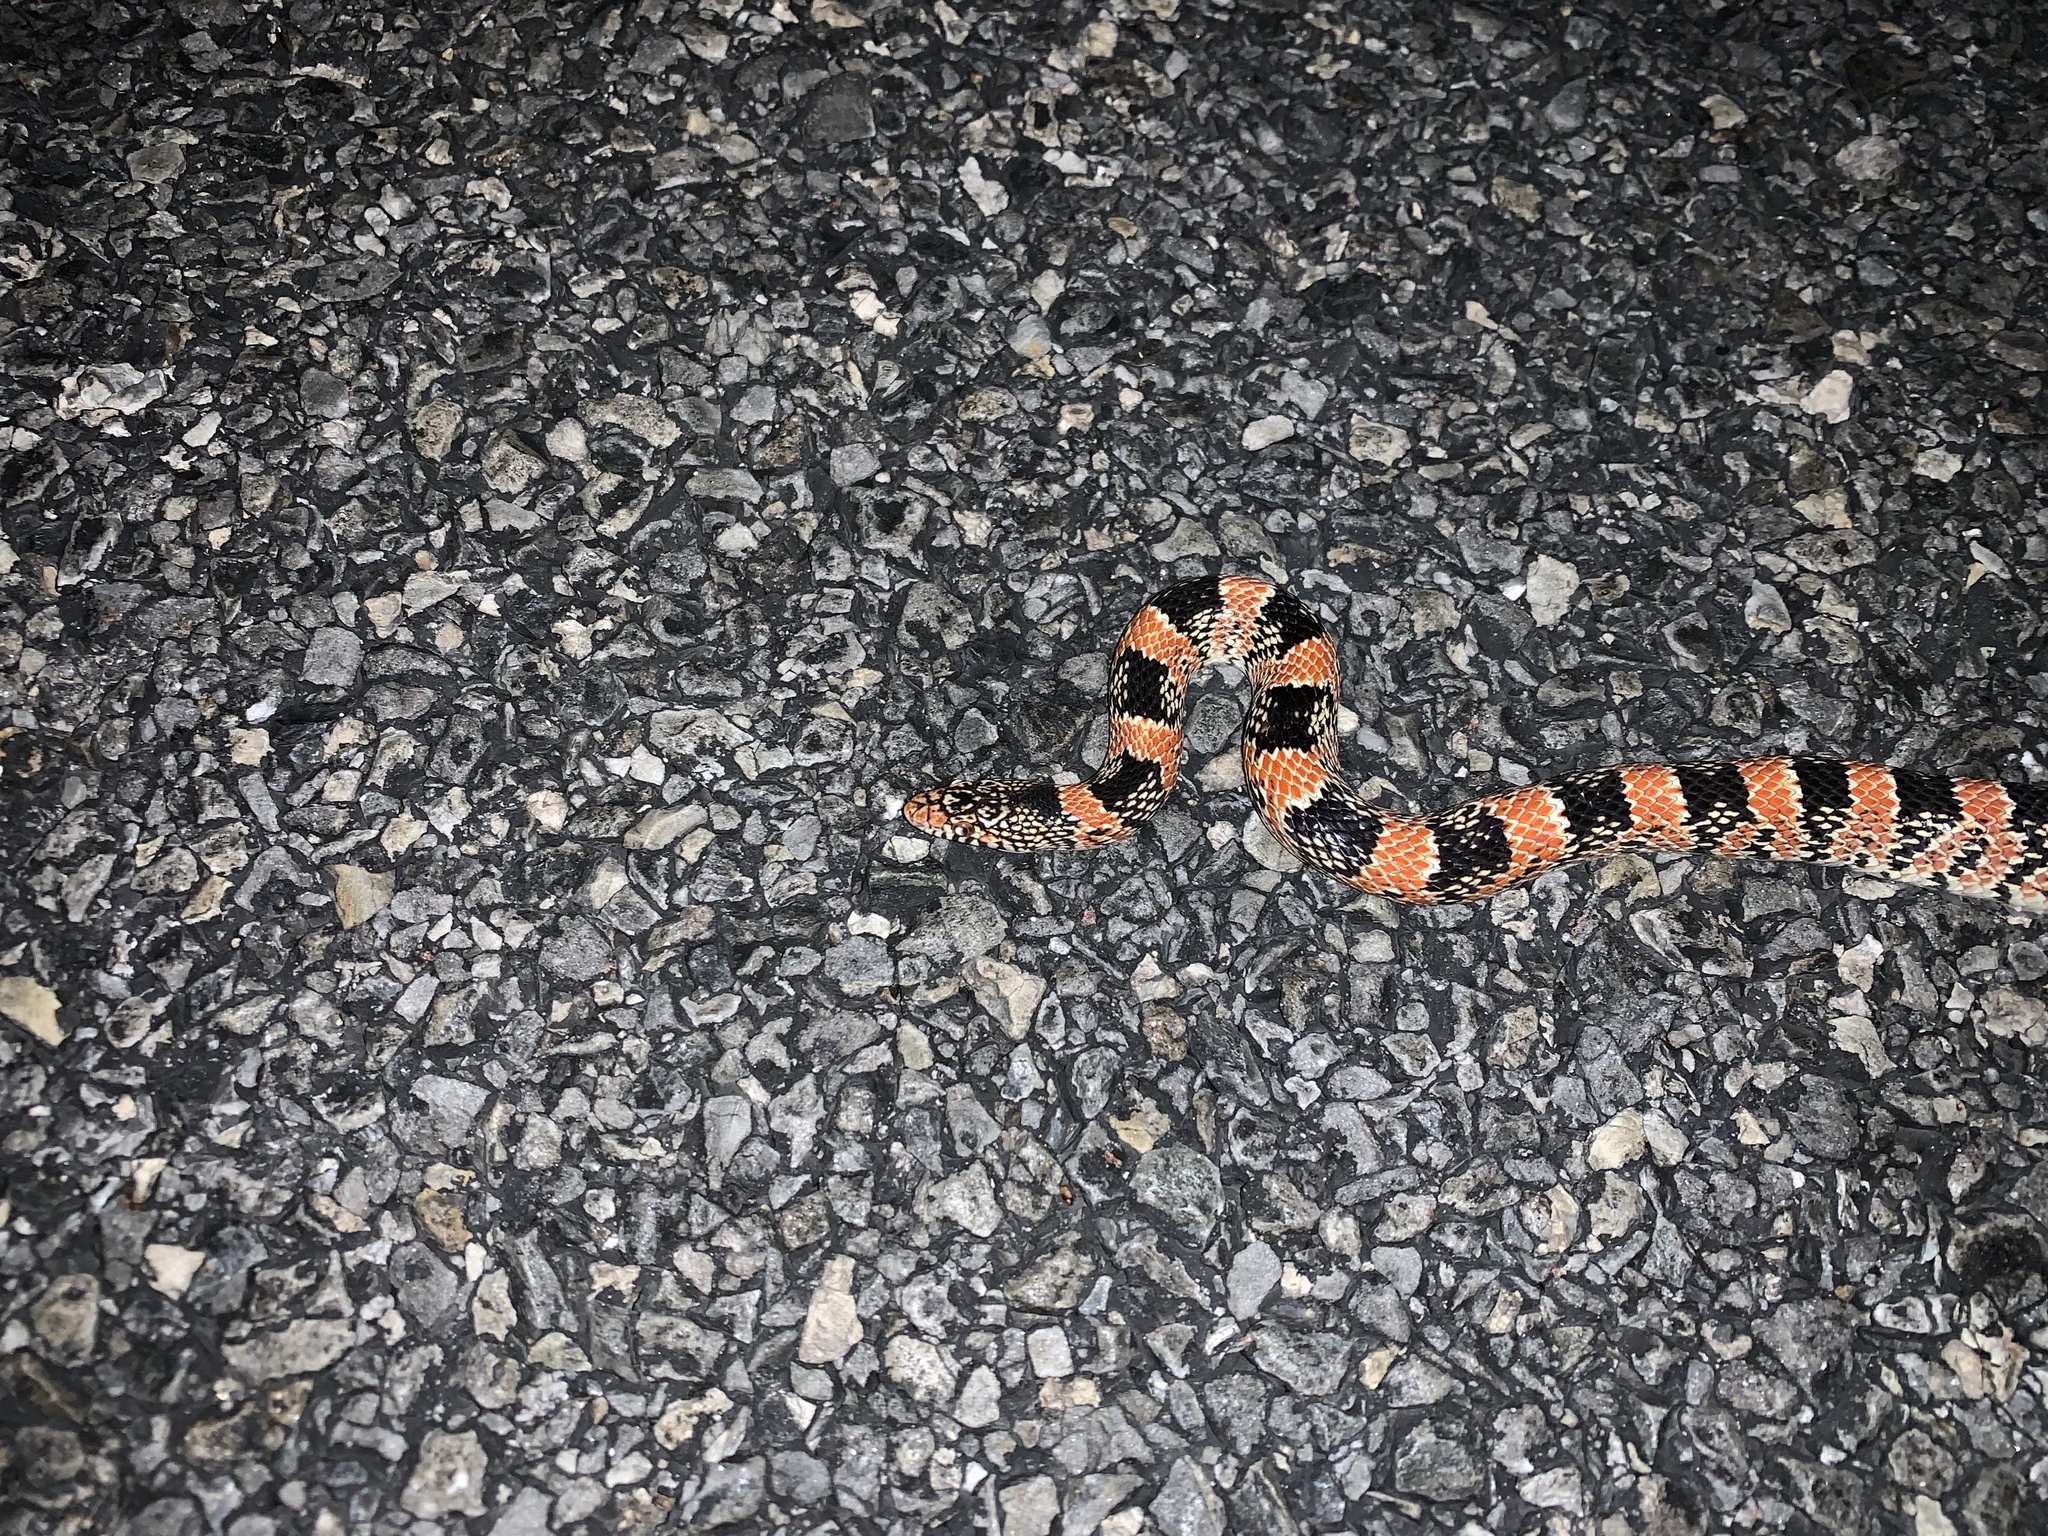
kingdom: Animalia
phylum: Chordata
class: Squamata
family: Colubridae
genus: Rhinocheilus
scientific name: Rhinocheilus lecontei
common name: Longnose snake
